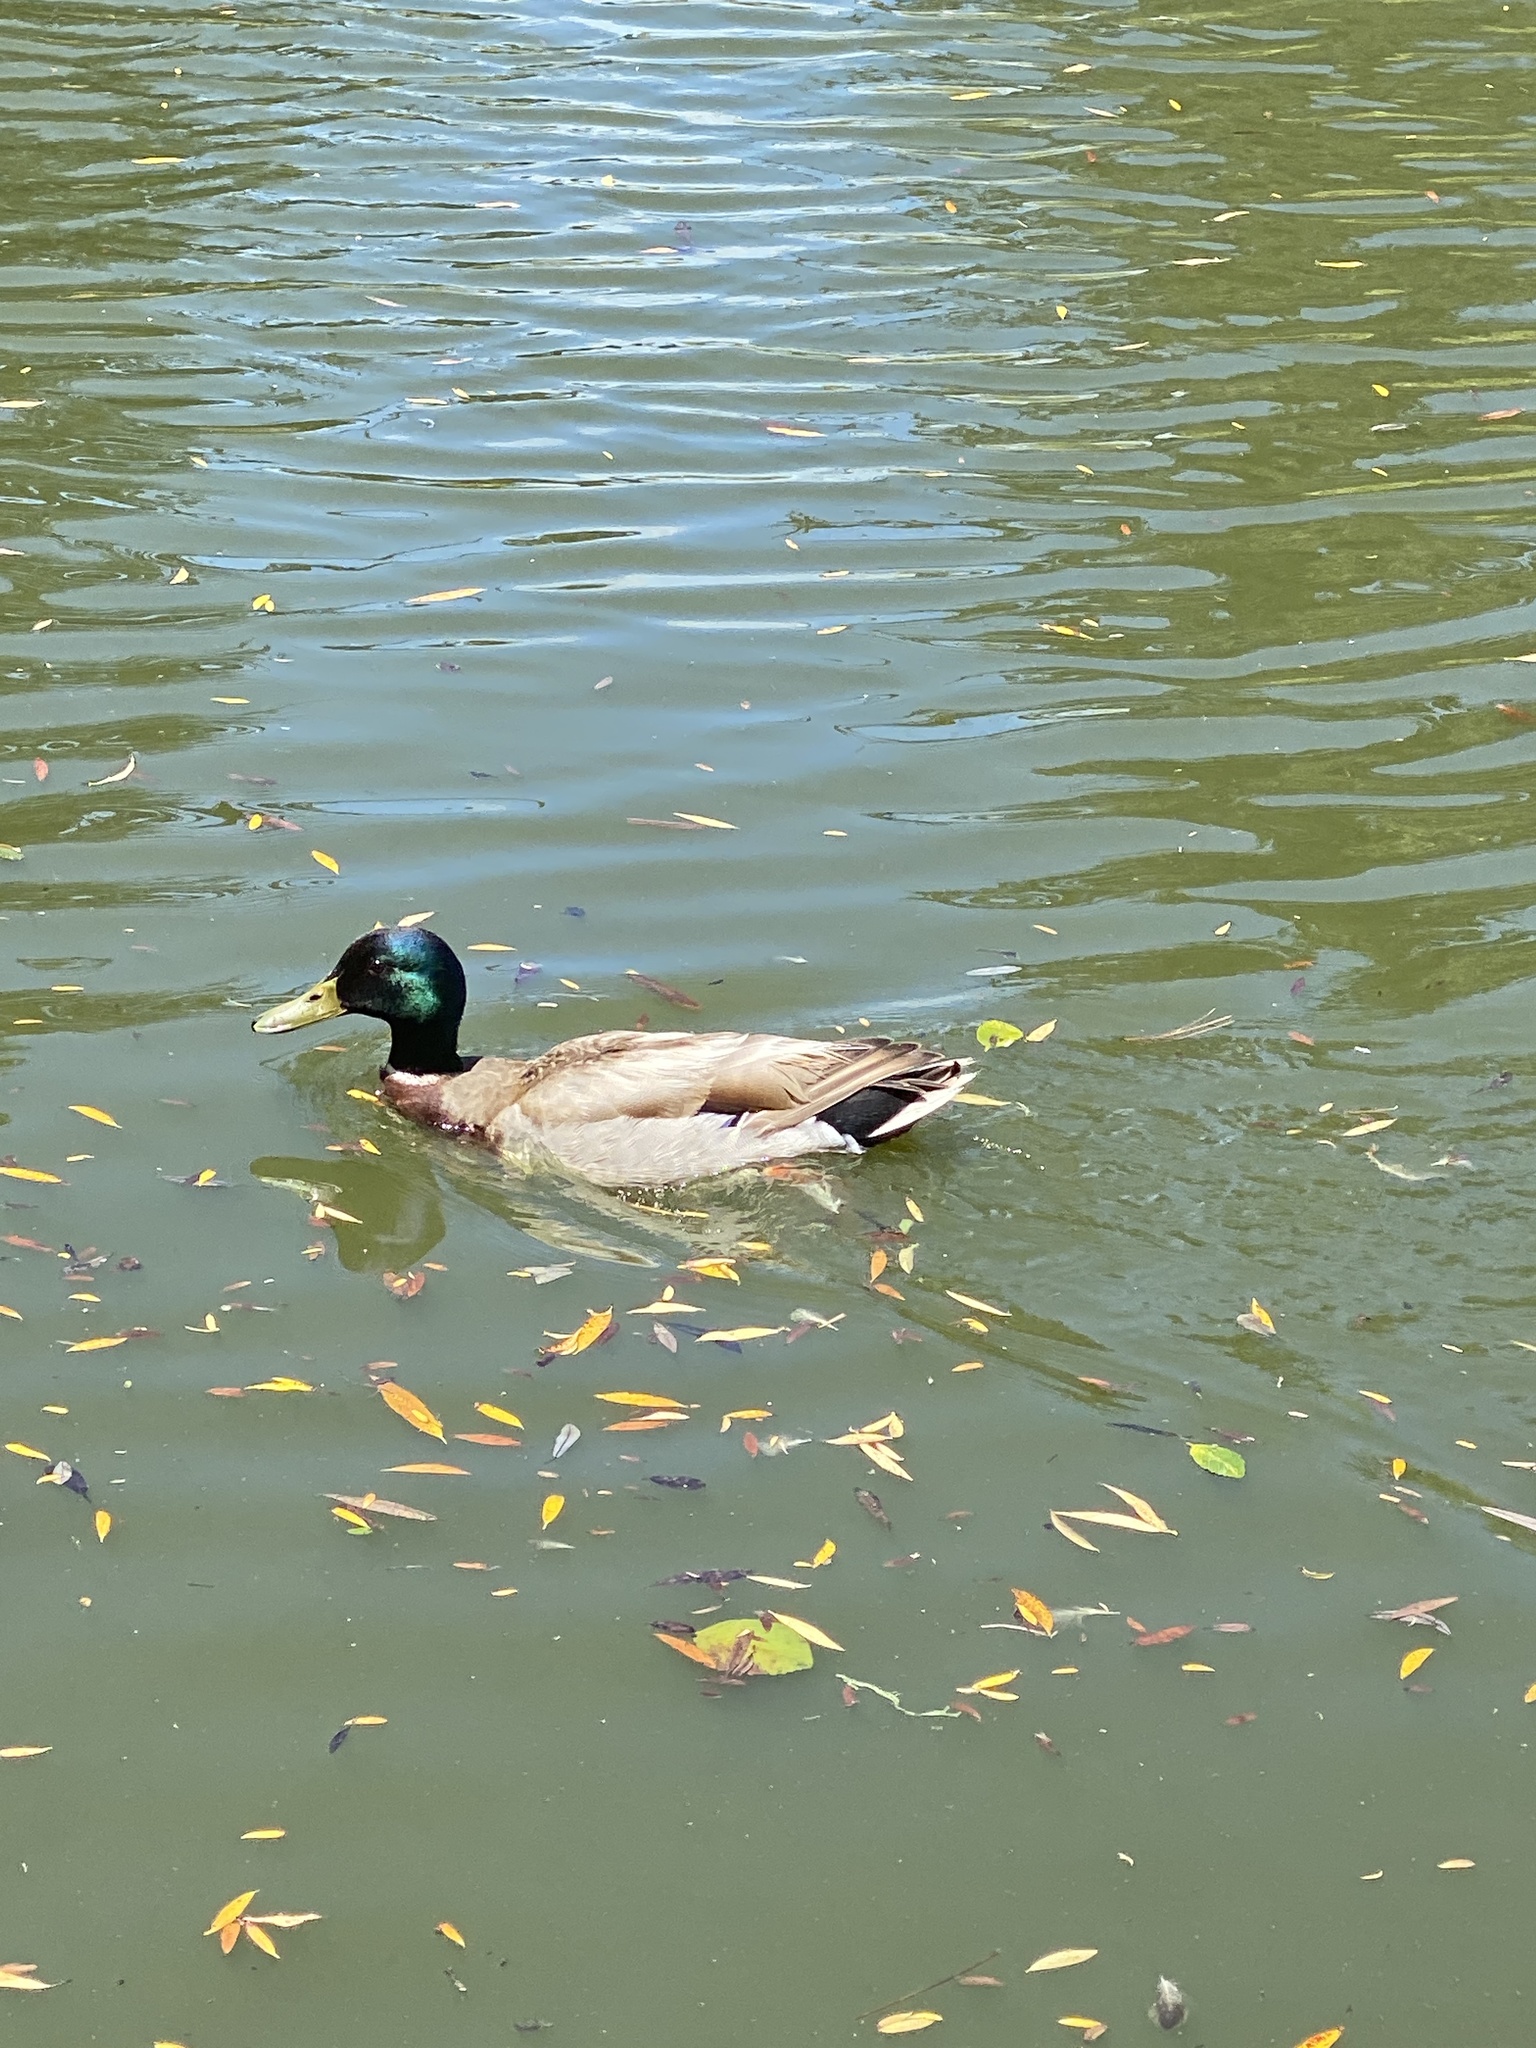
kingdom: Animalia
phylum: Chordata
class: Aves
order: Anseriformes
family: Anatidae
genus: Anas
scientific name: Anas platyrhynchos
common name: Mallard
